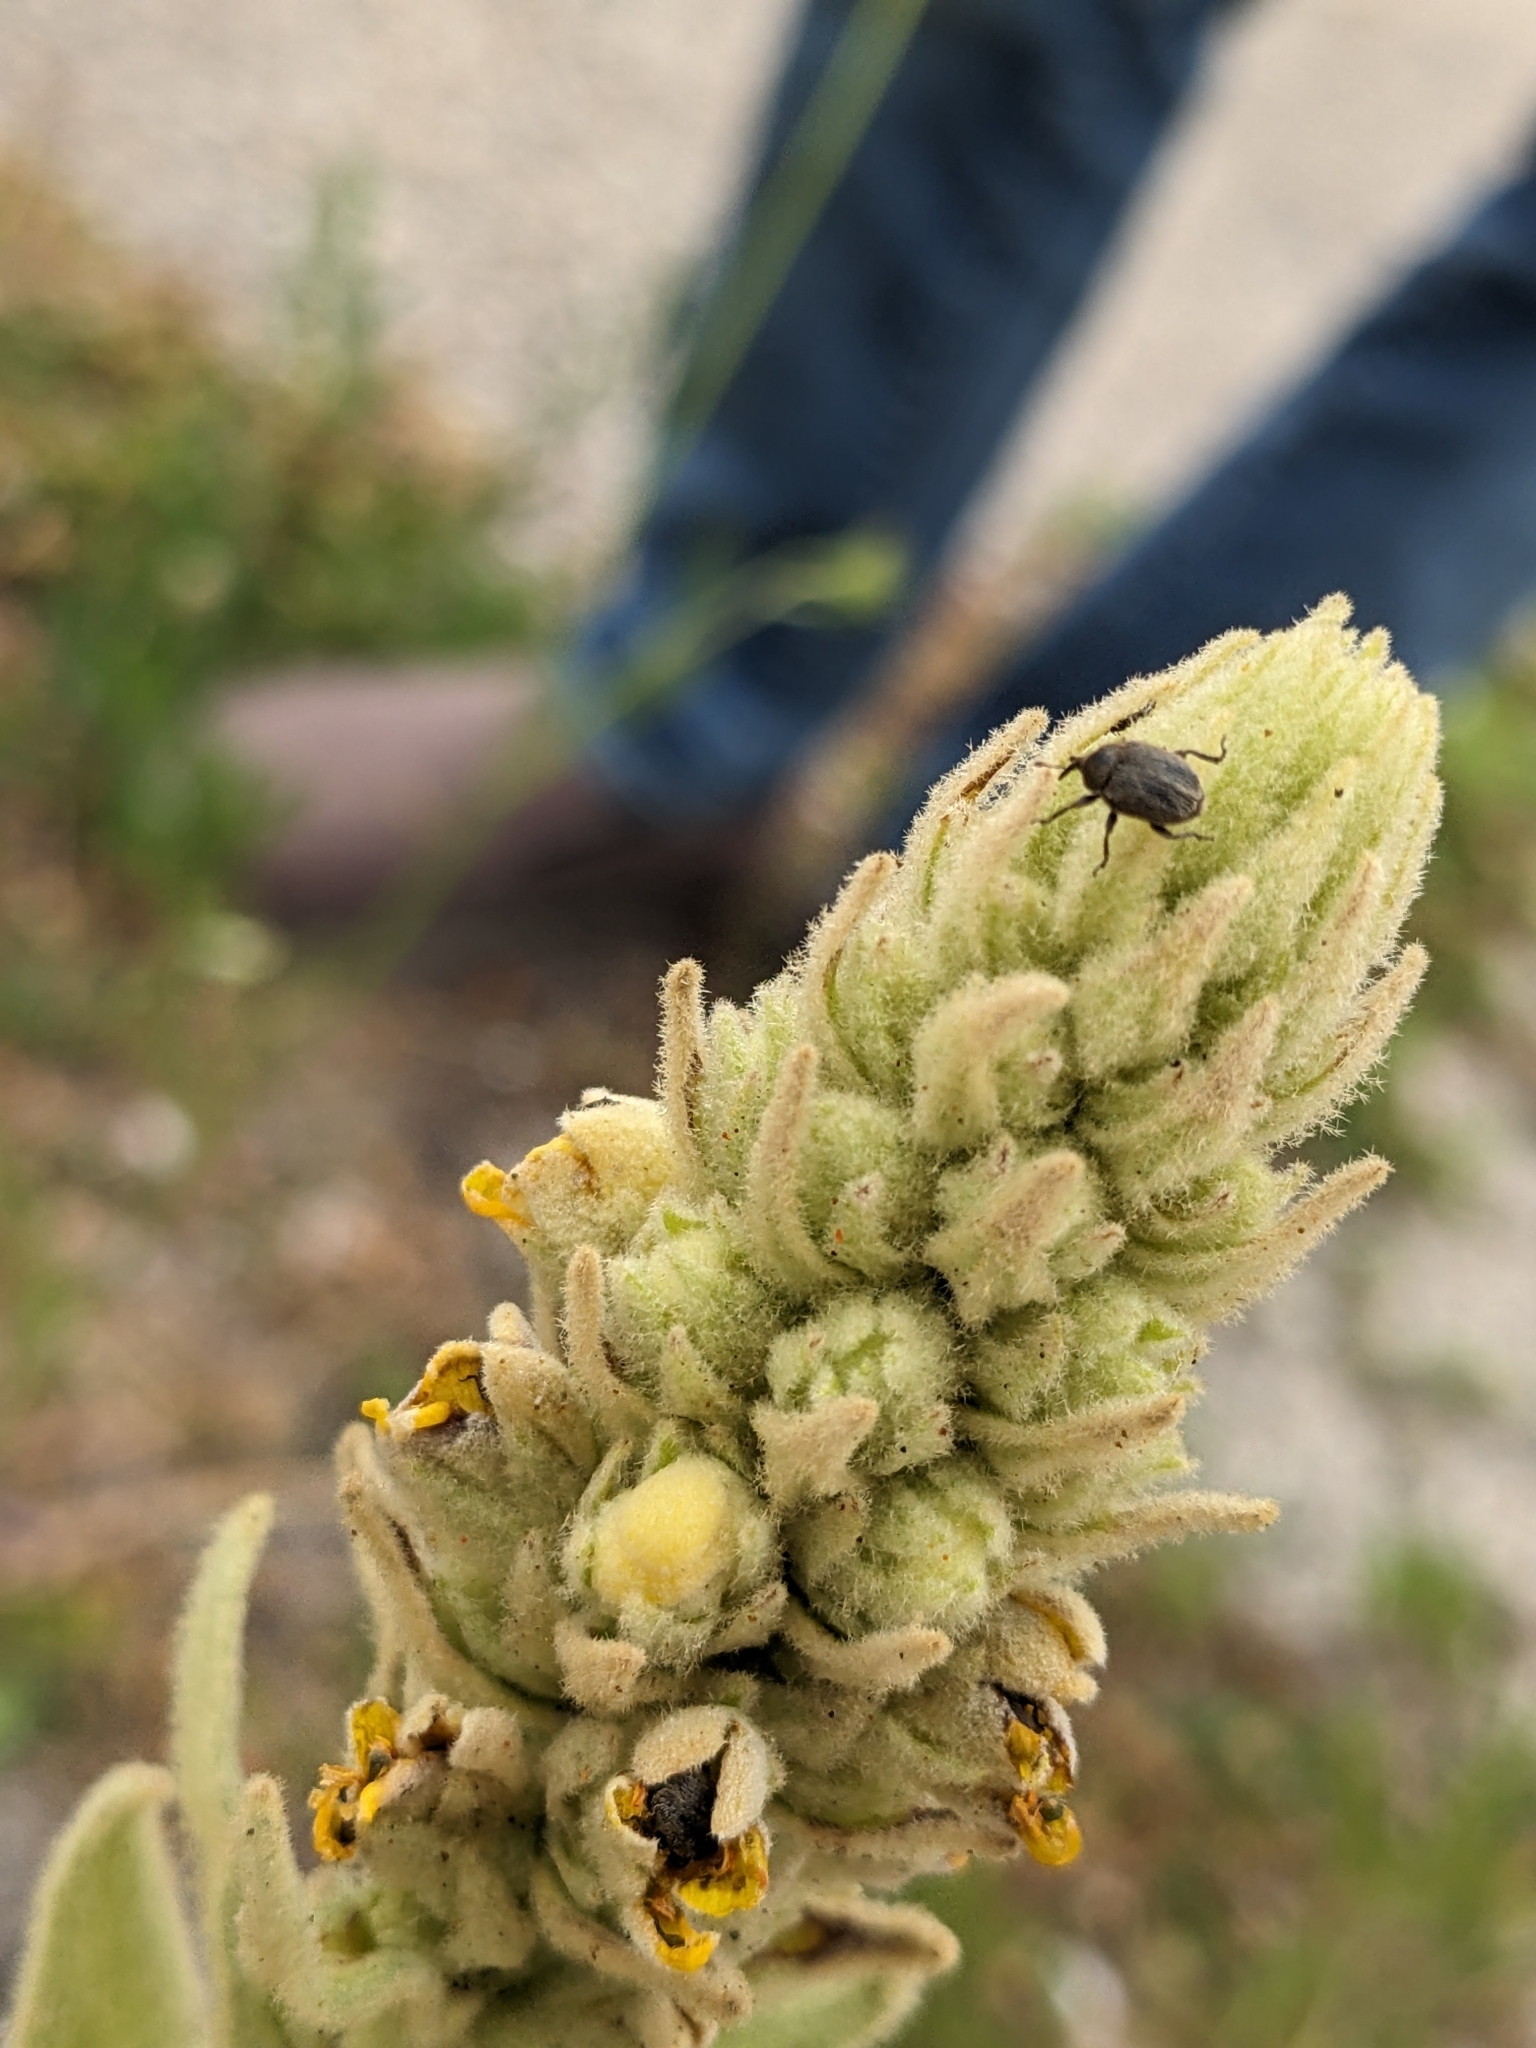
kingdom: Animalia
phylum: Arthropoda
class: Insecta
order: Coleoptera
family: Curculionidae
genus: Rhinusa
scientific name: Rhinusa tetra
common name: Weevil
